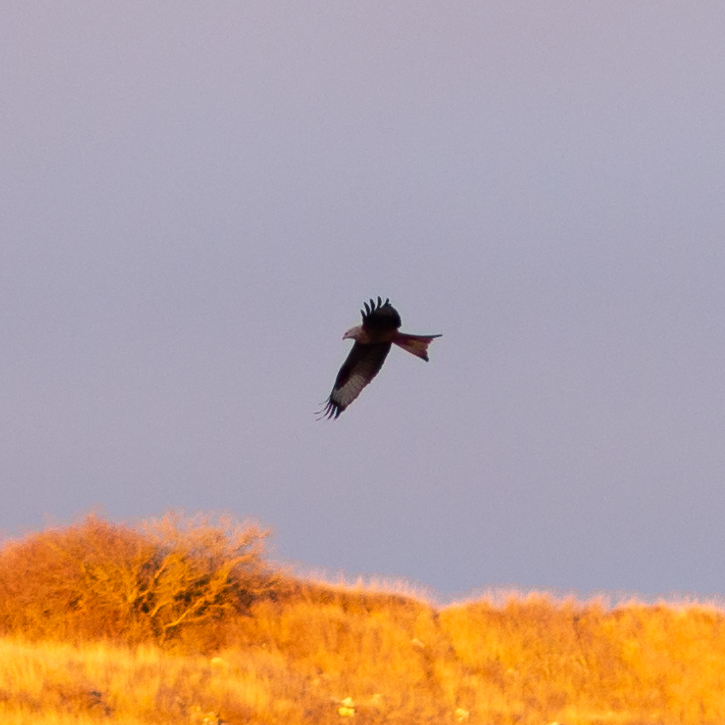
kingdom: Animalia
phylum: Chordata
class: Aves
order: Accipitriformes
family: Accipitridae
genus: Milvus
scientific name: Milvus milvus
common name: Red kite
